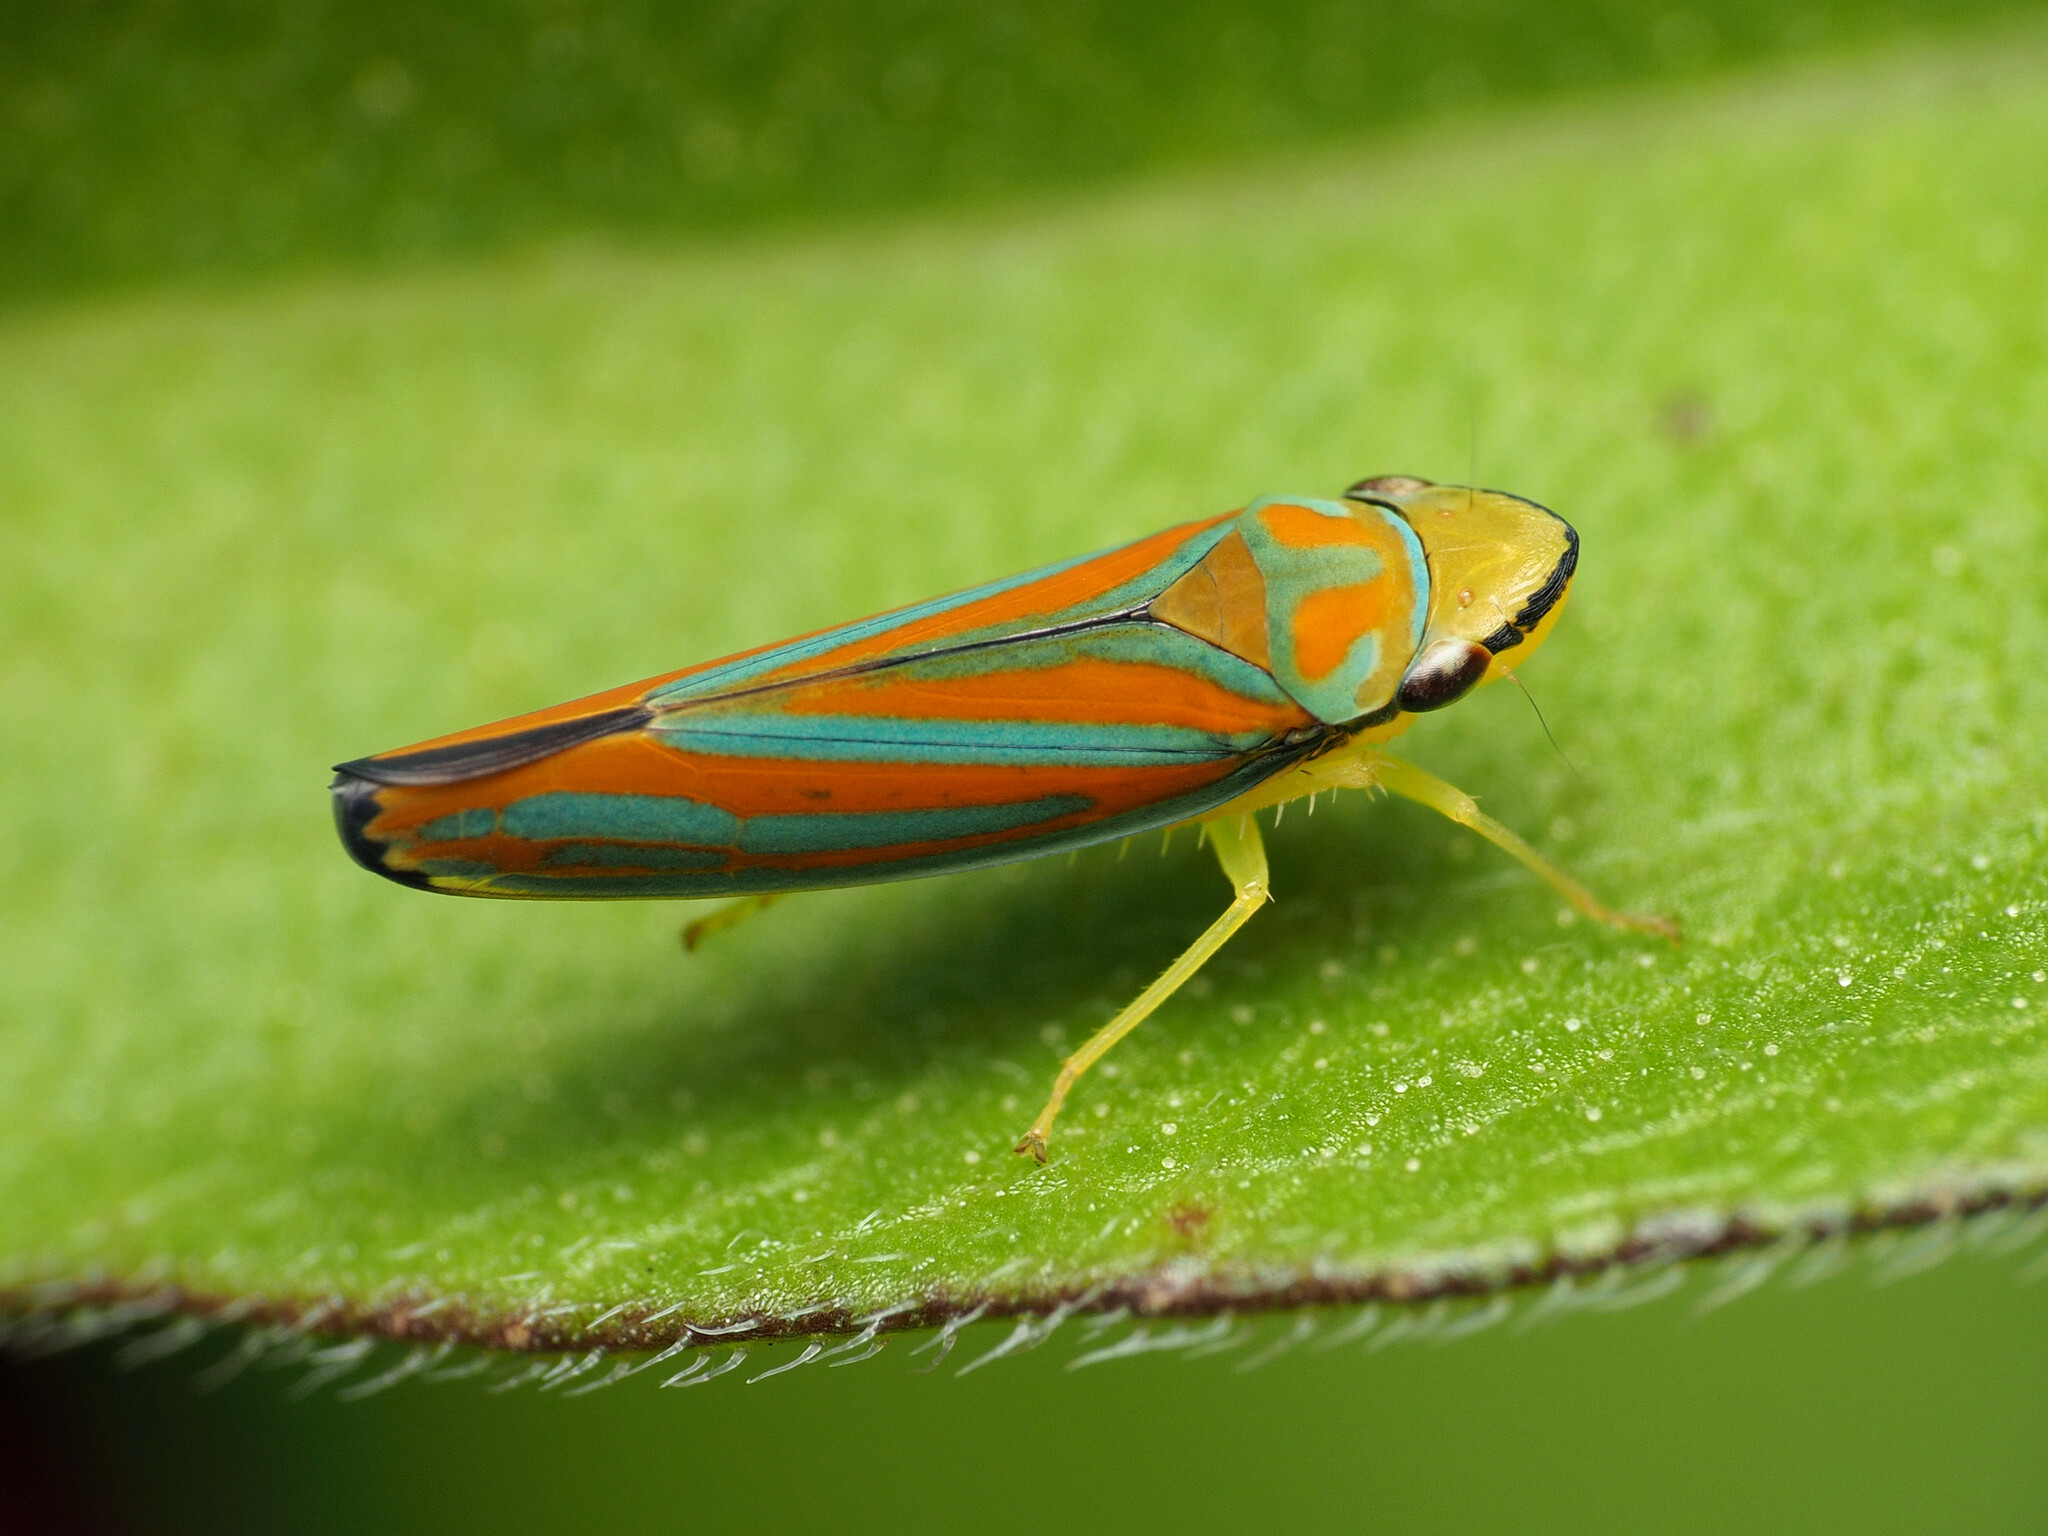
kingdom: Animalia
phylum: Arthropoda
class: Insecta
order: Hemiptera
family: Cicadellidae
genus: Graphocephala
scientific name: Graphocephala coccinea
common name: Candy-striped leafhopper
